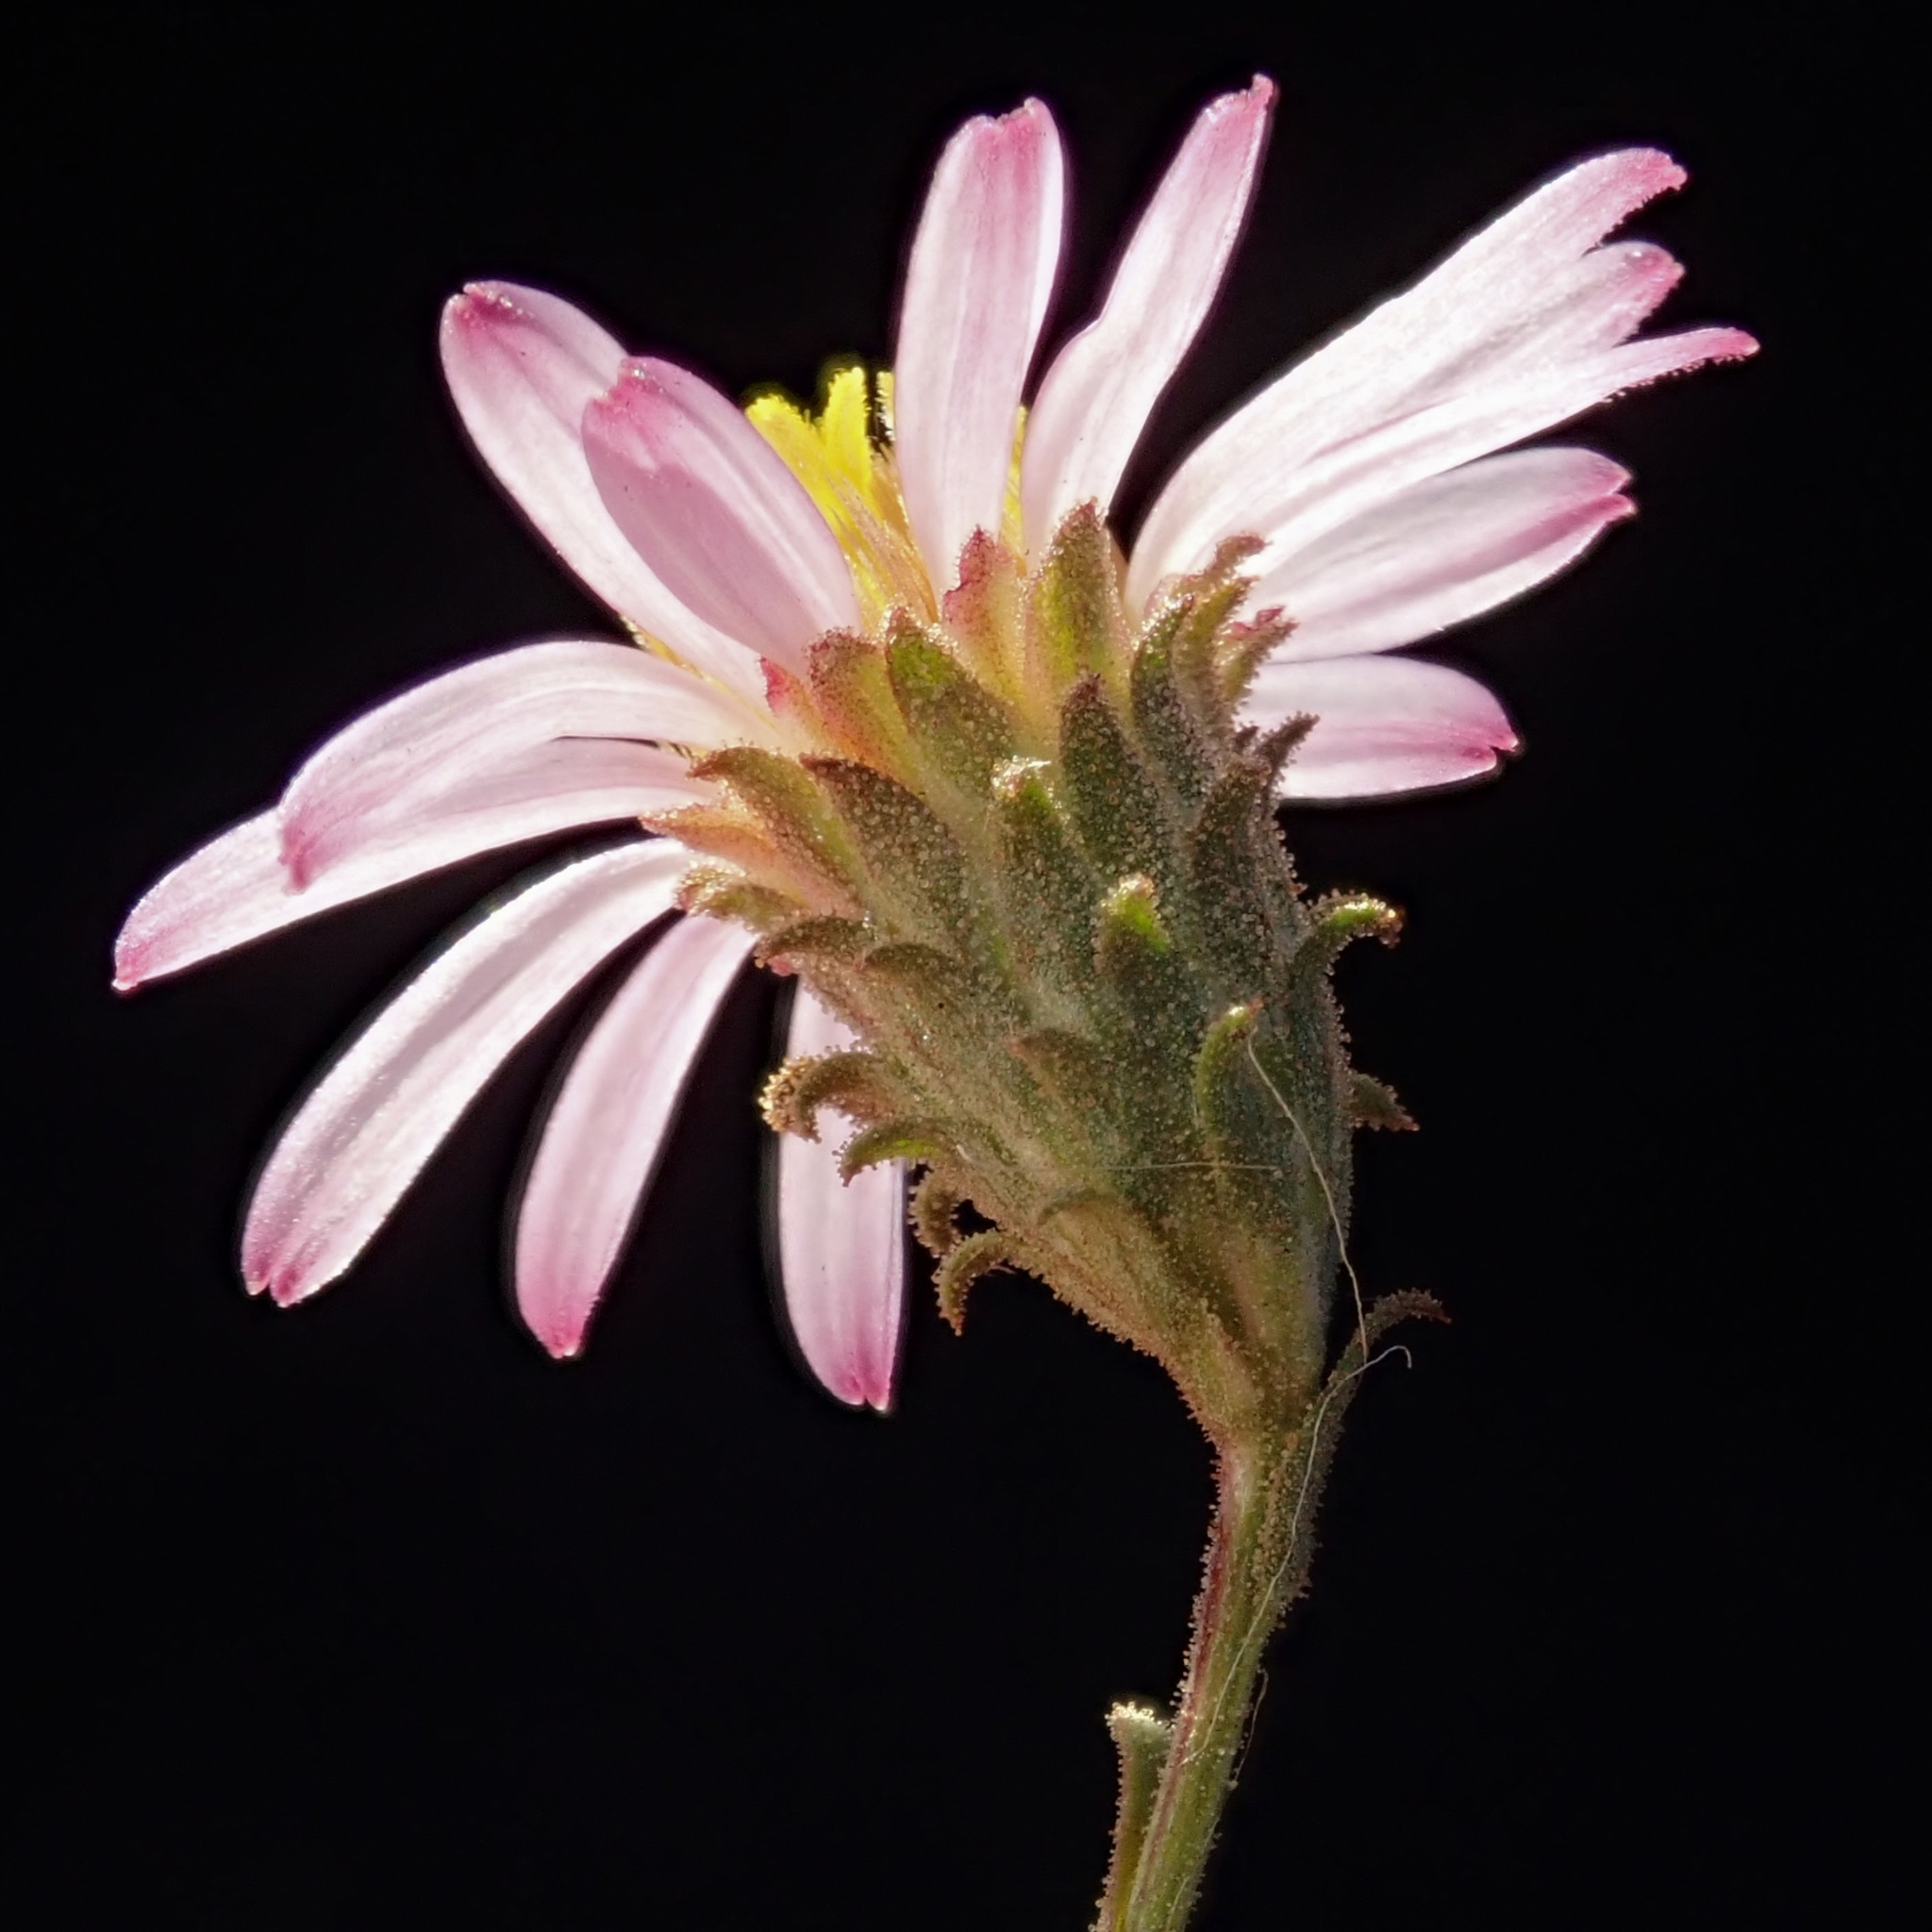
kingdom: Plantae
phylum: Tracheophyta
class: Magnoliopsida
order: Asterales
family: Asteraceae
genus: Corethrogyne
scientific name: Corethrogyne filaginifolia
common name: Sand-aster
